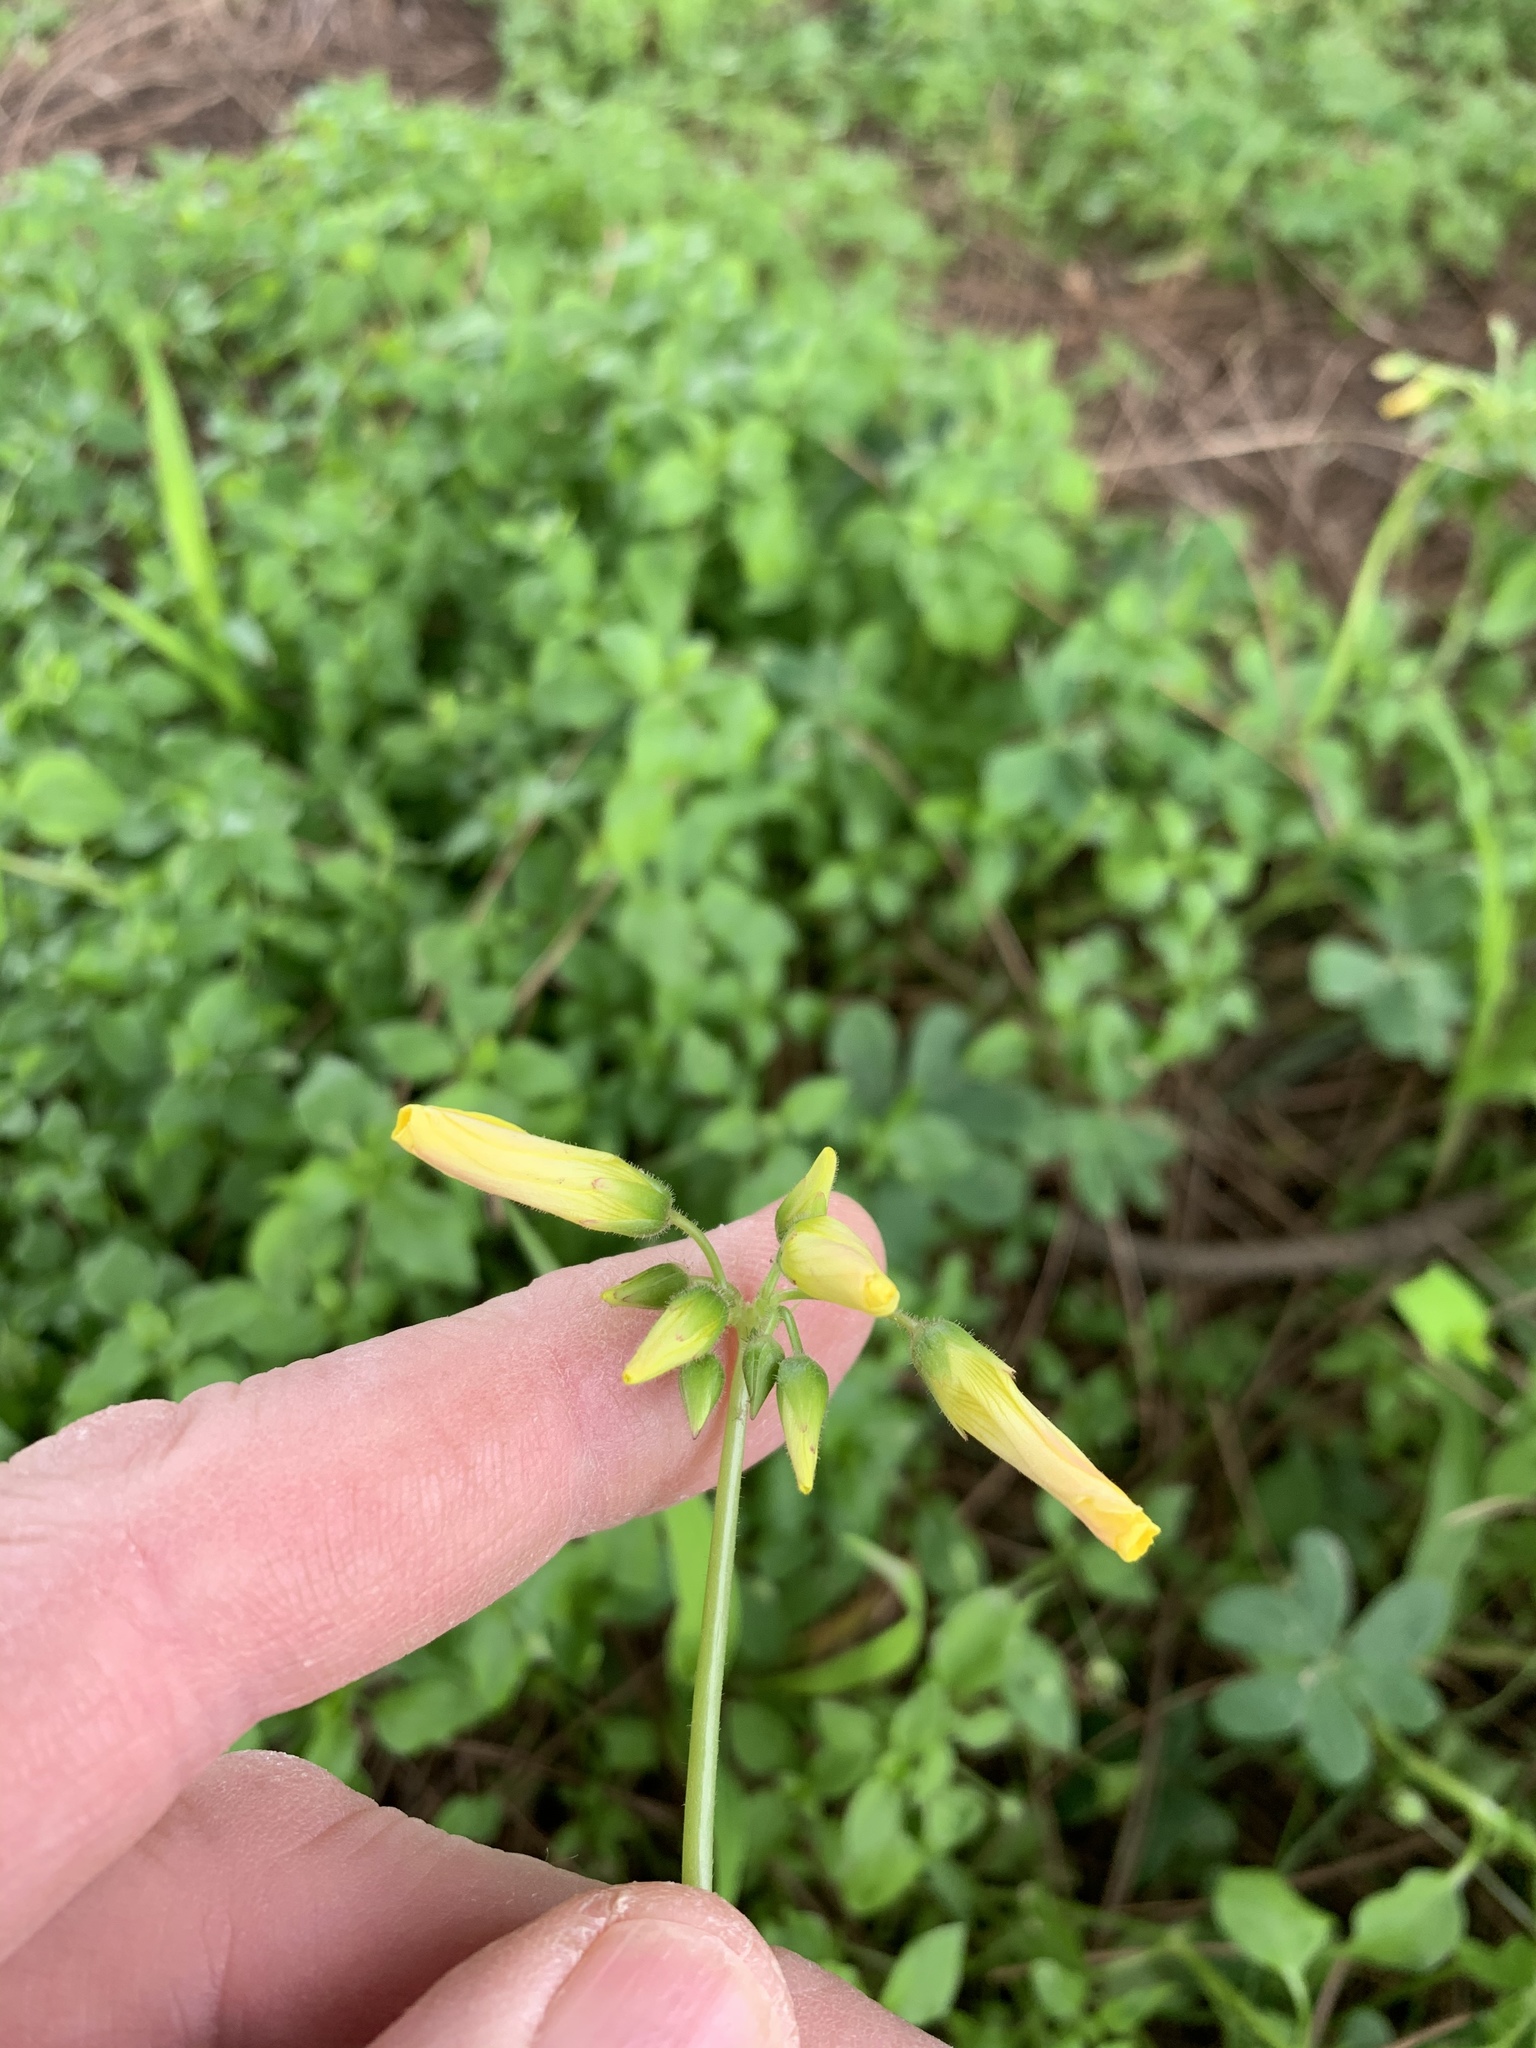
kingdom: Plantae
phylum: Tracheophyta
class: Magnoliopsida
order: Oxalidales
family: Oxalidaceae
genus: Oxalis
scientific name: Oxalis pes-caprae
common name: Bermuda-buttercup
